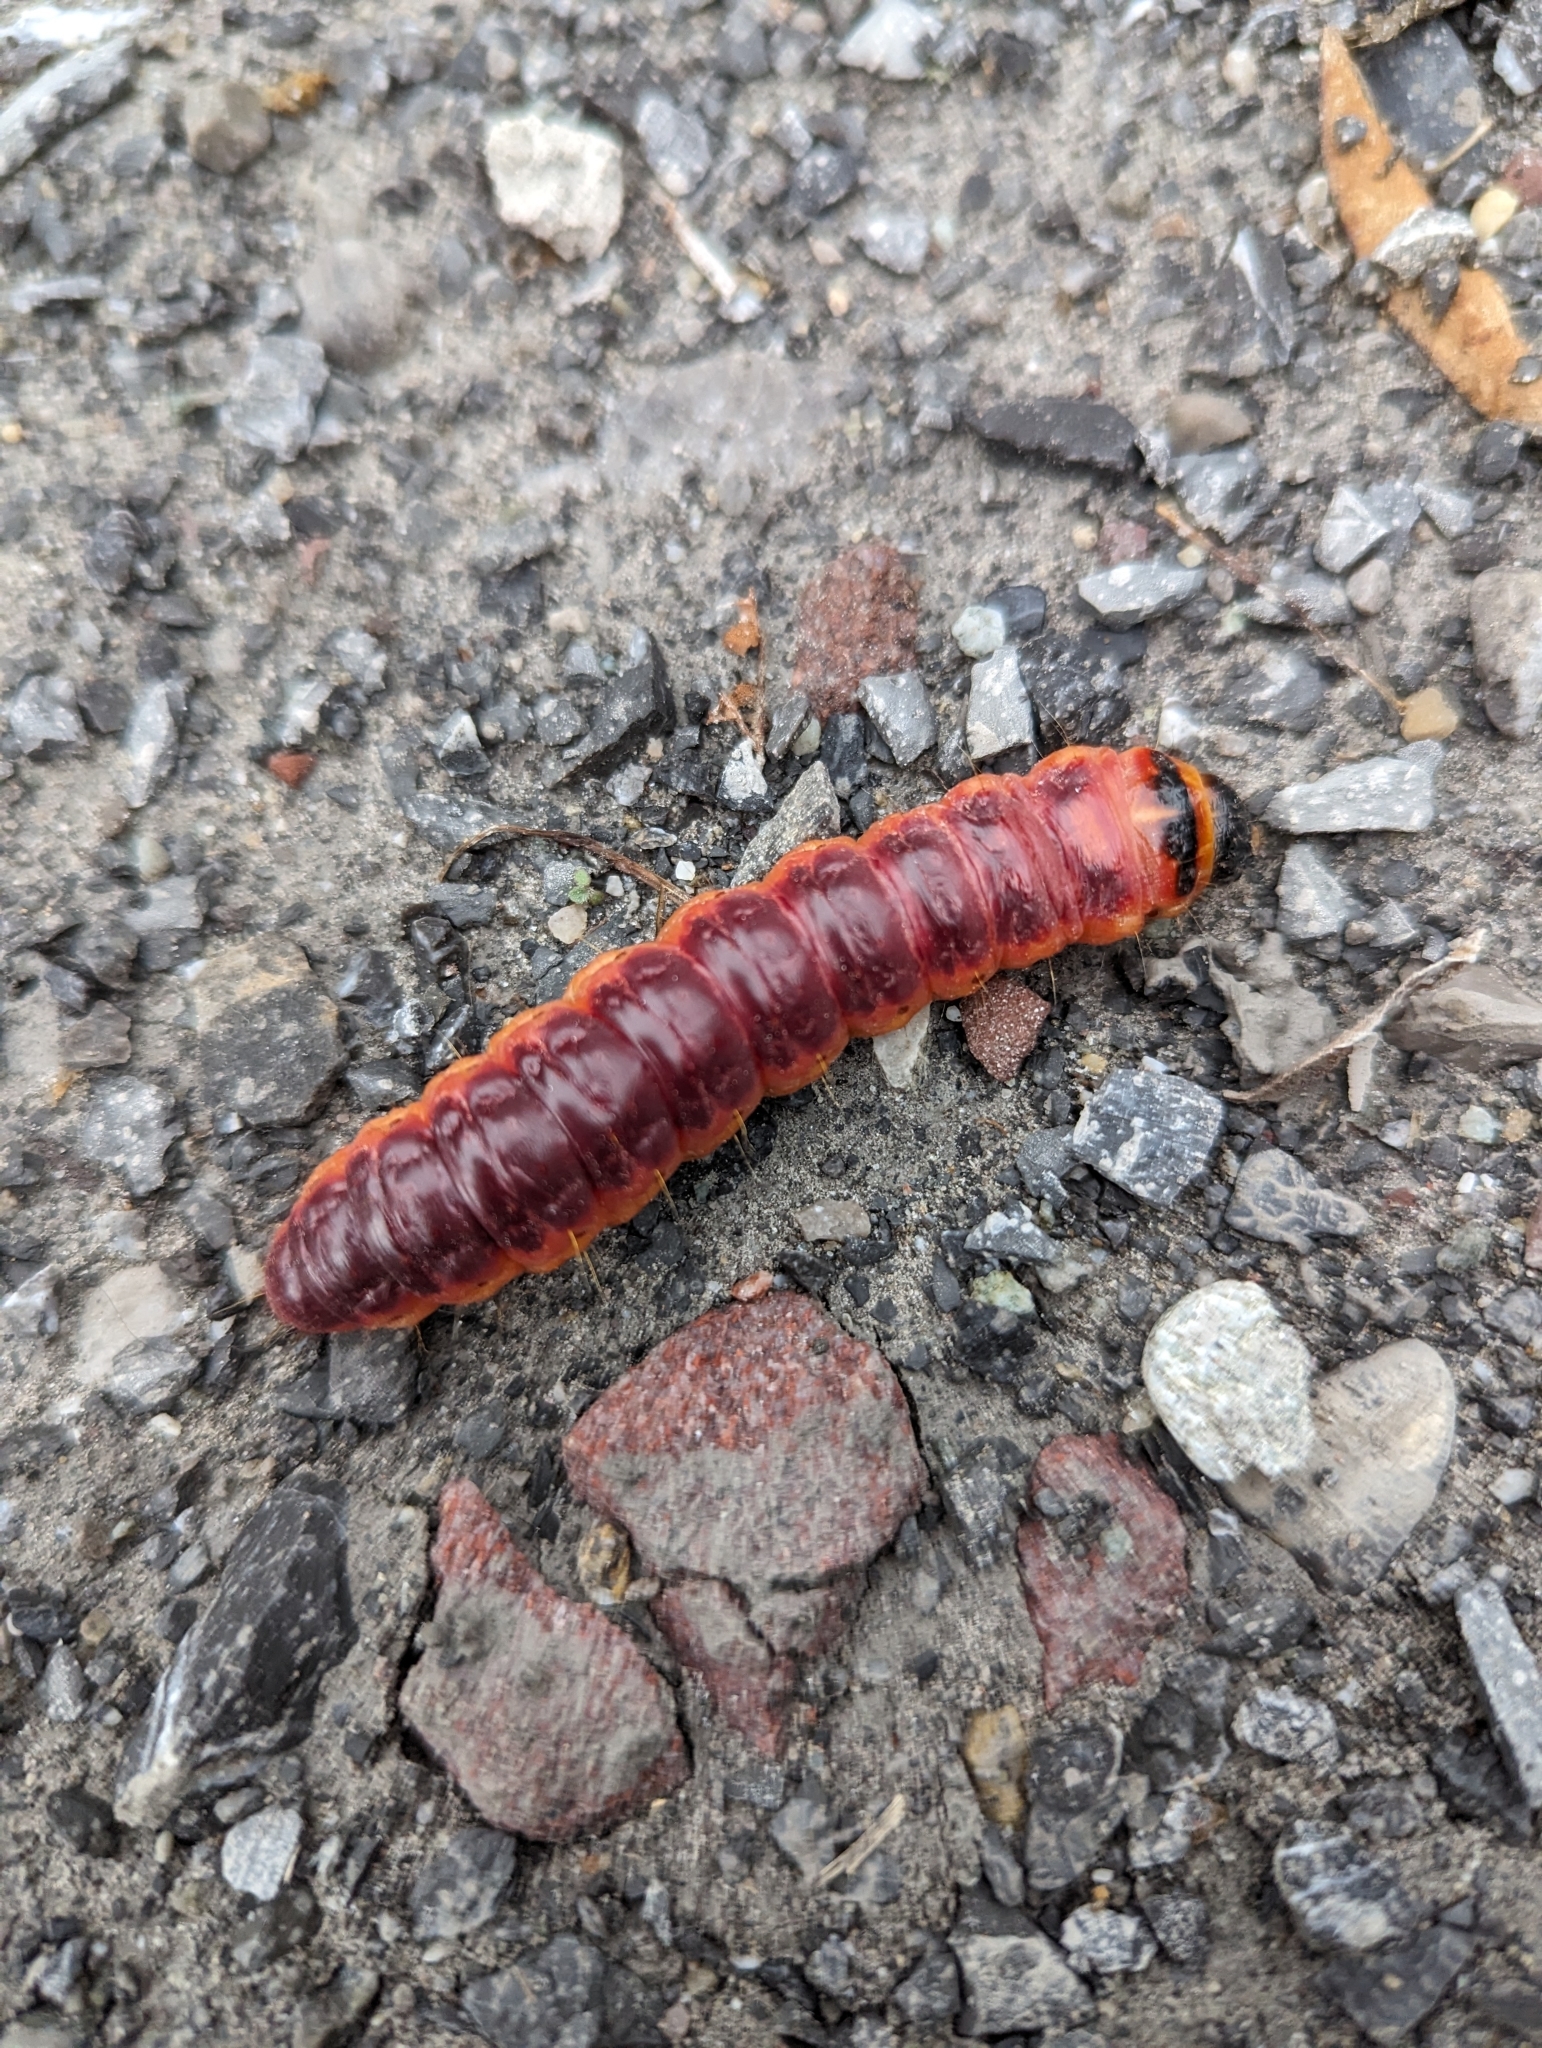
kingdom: Animalia
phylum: Arthropoda
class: Insecta
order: Lepidoptera
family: Cossidae
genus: Cossus
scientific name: Cossus cossus
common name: Goat moth
